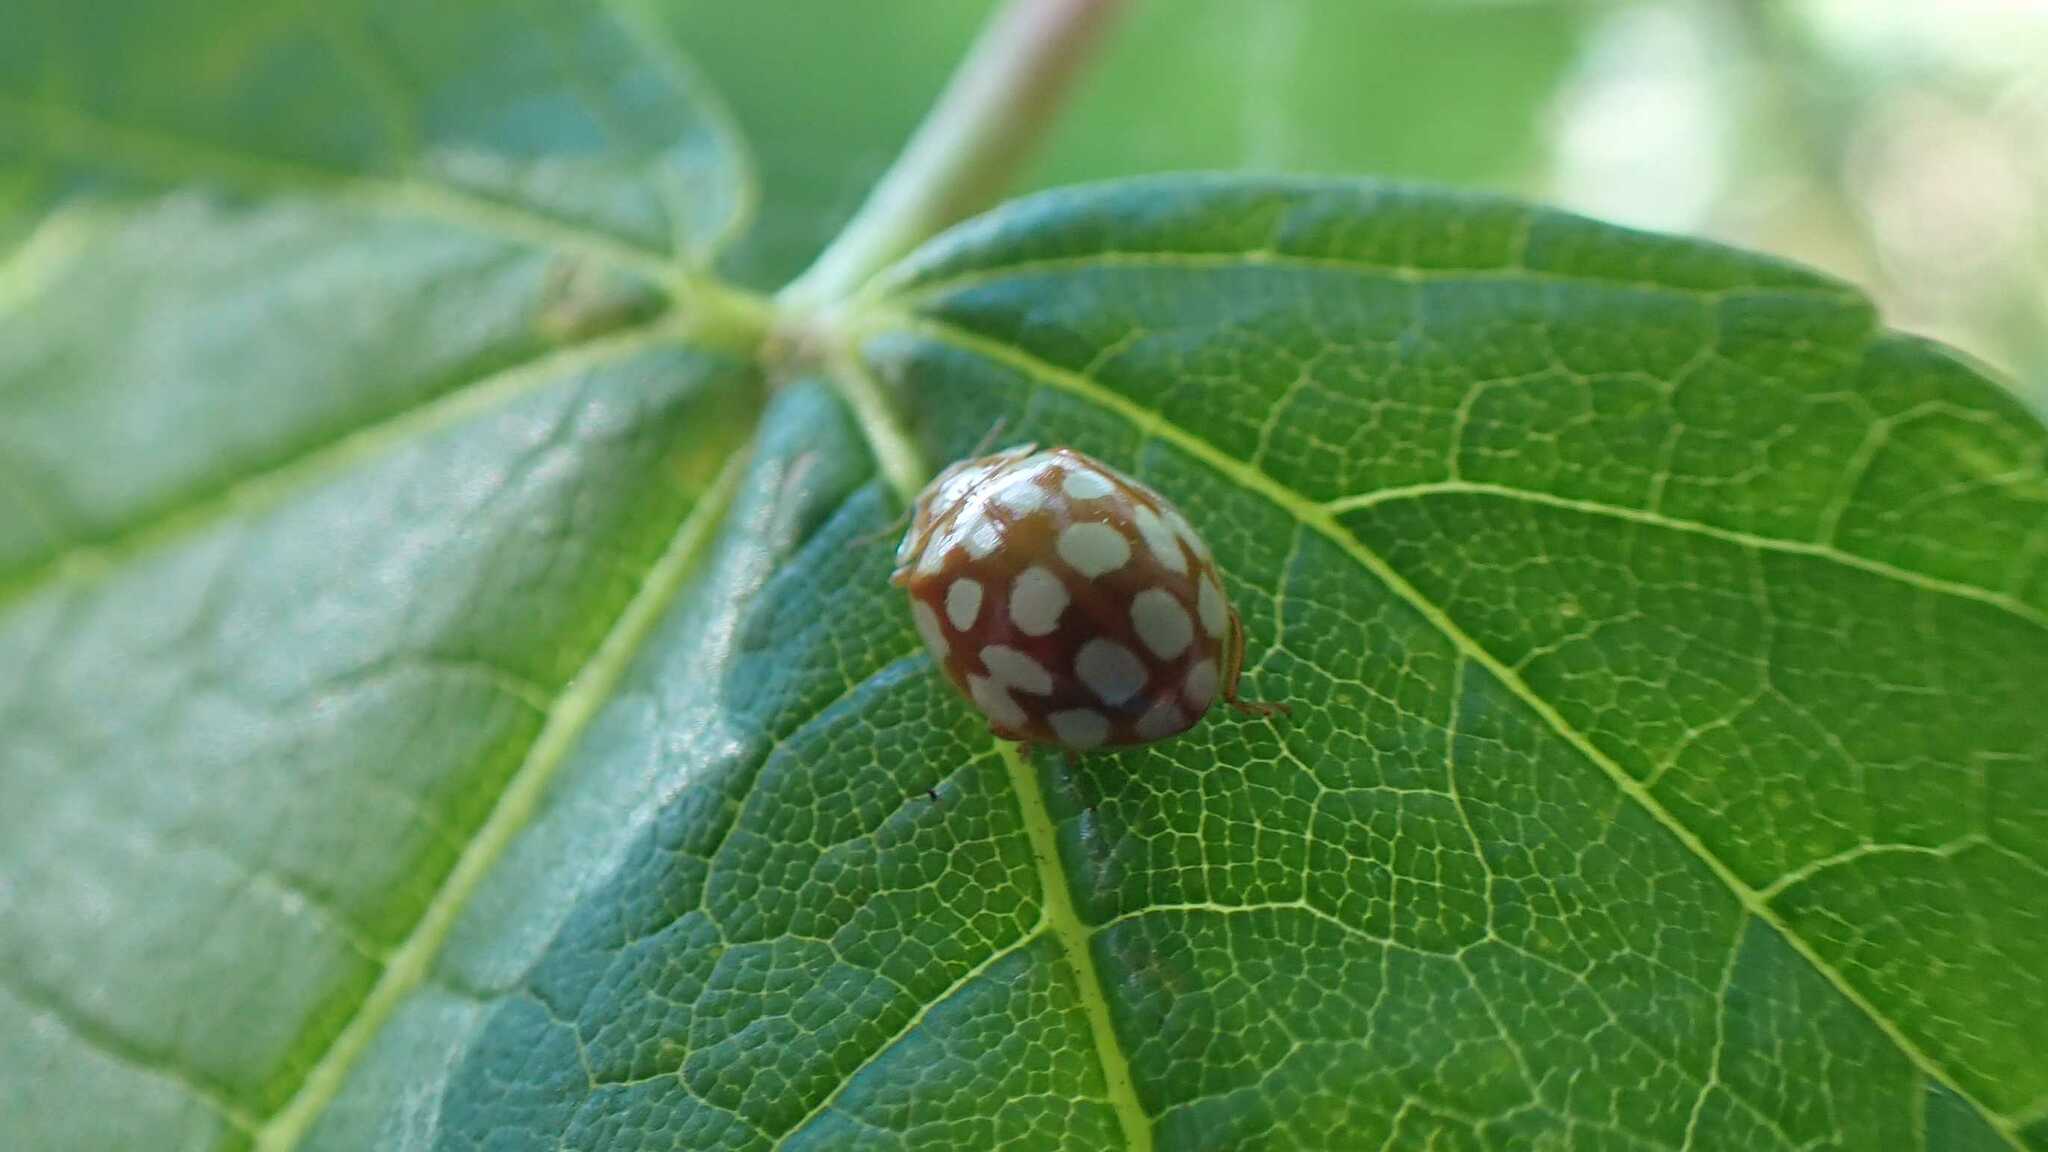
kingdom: Animalia
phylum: Arthropoda
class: Insecta
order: Coleoptera
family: Coccinellidae
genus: Sospita
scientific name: Sospita vigintiguttata
